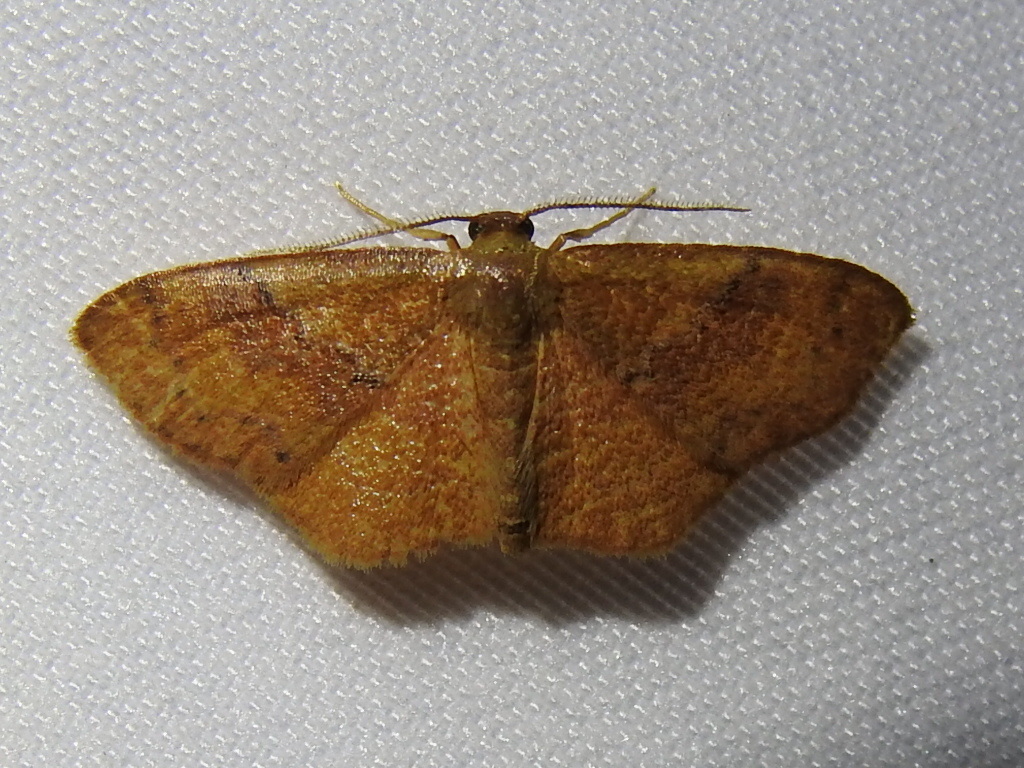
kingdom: Animalia
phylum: Arthropoda
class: Insecta
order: Lepidoptera
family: Geometridae
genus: Leptostales
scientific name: Leptostales ferruminaria
